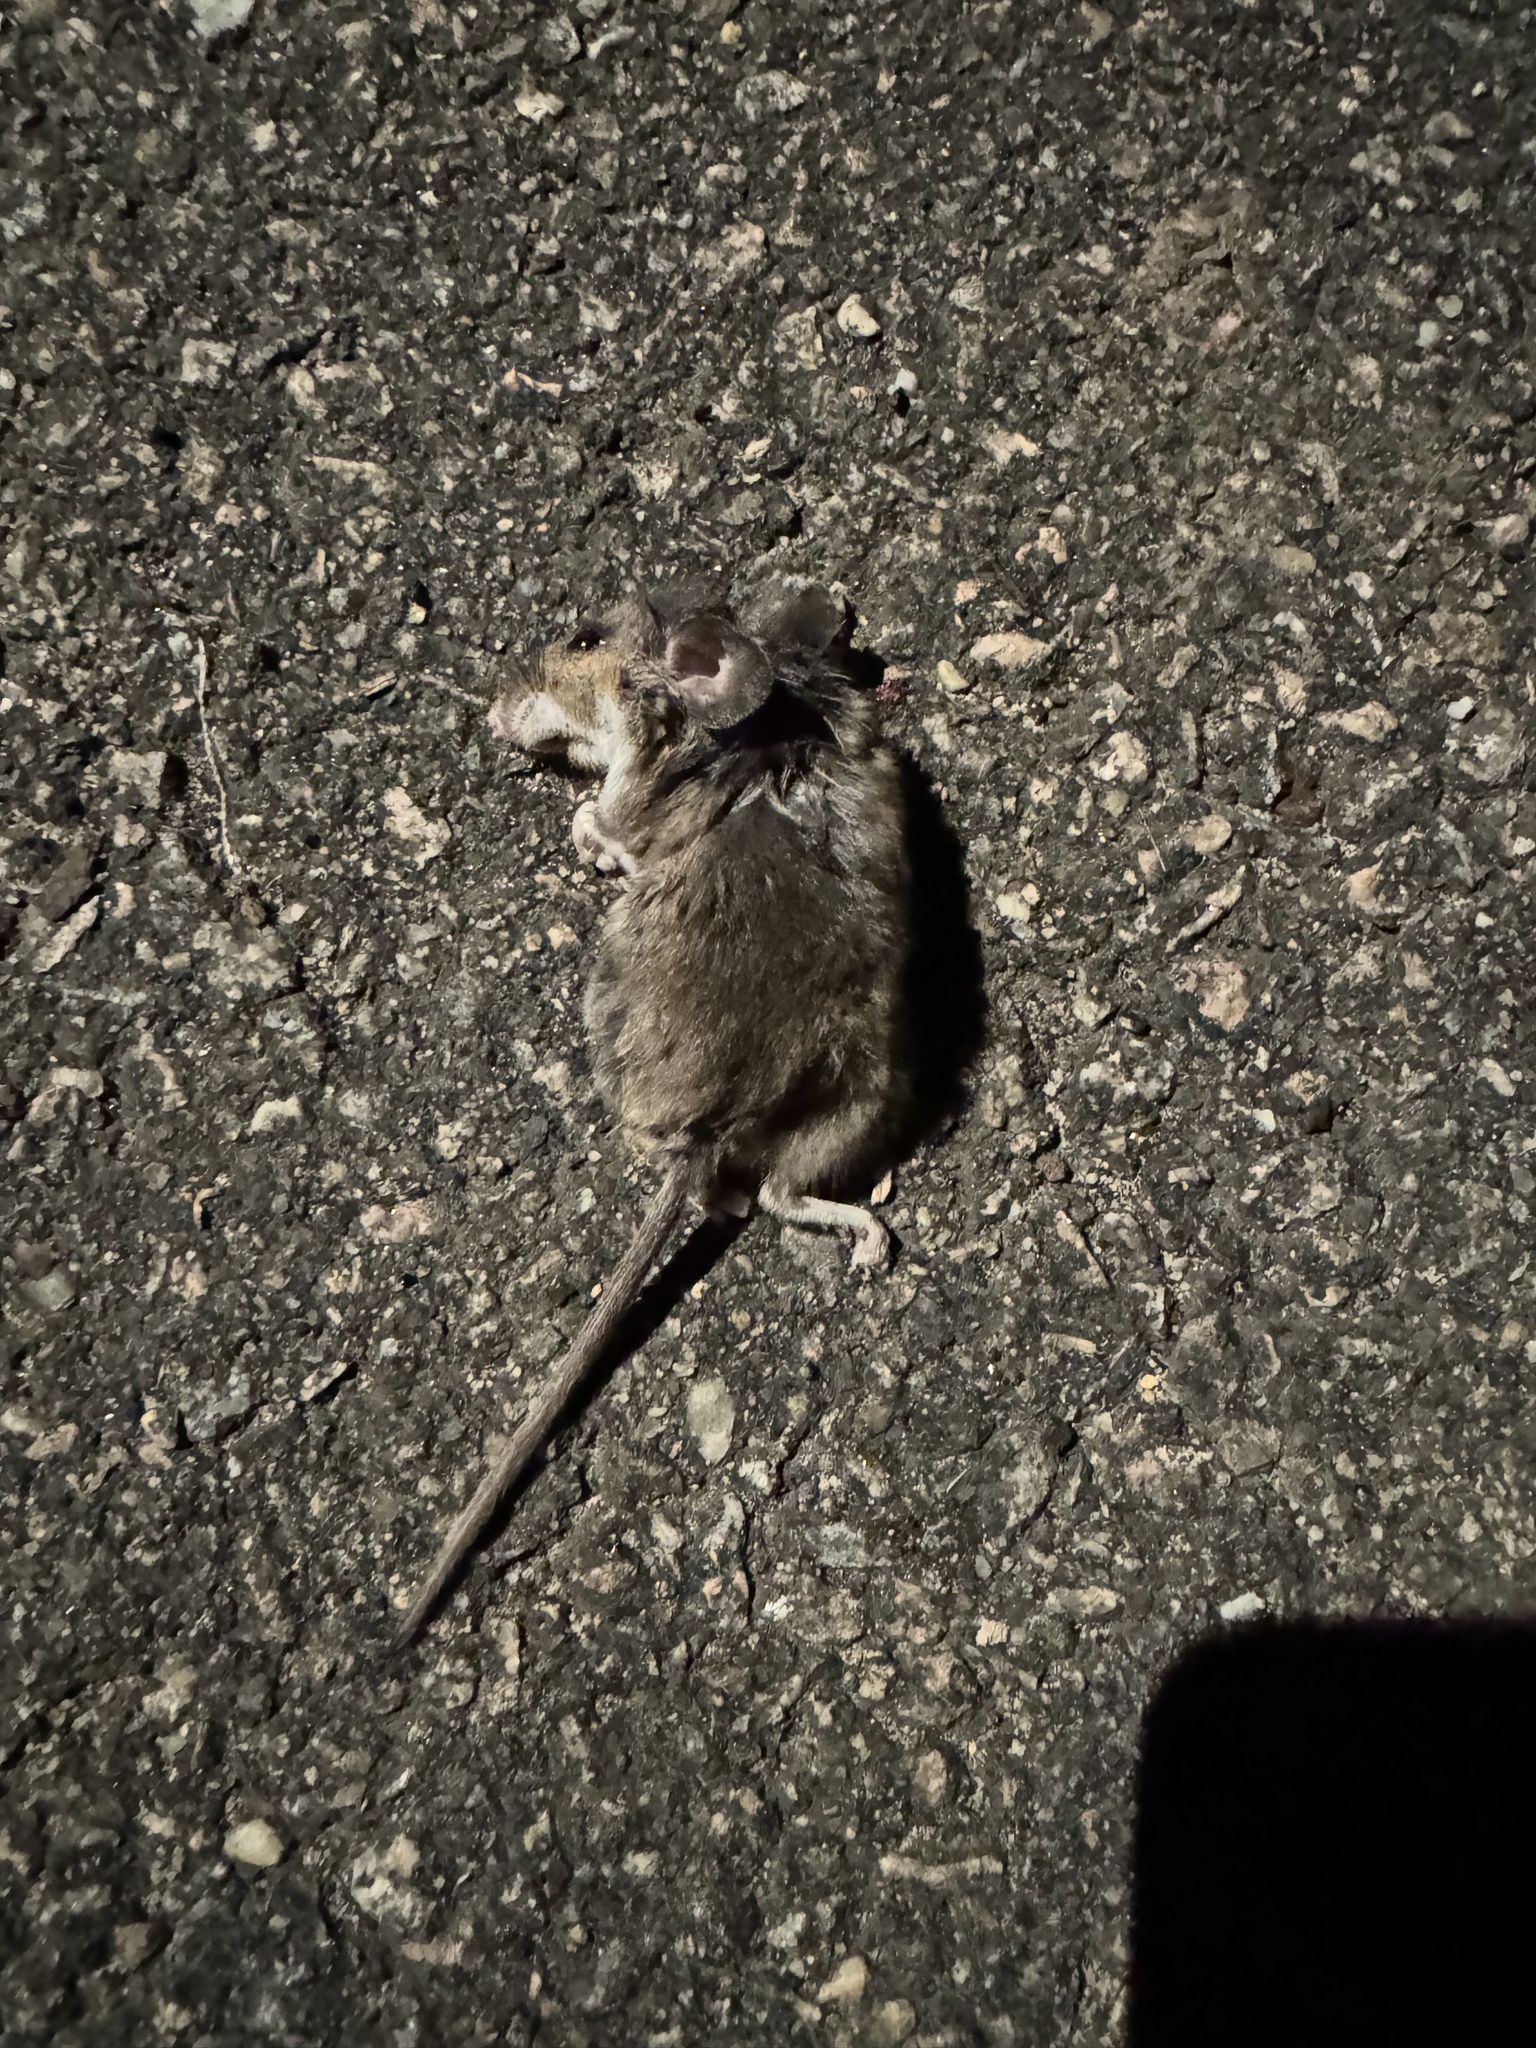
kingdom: Animalia
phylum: Chordata
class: Mammalia
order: Rodentia
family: Muridae
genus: Mus
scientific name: Mus musculus
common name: House mouse
